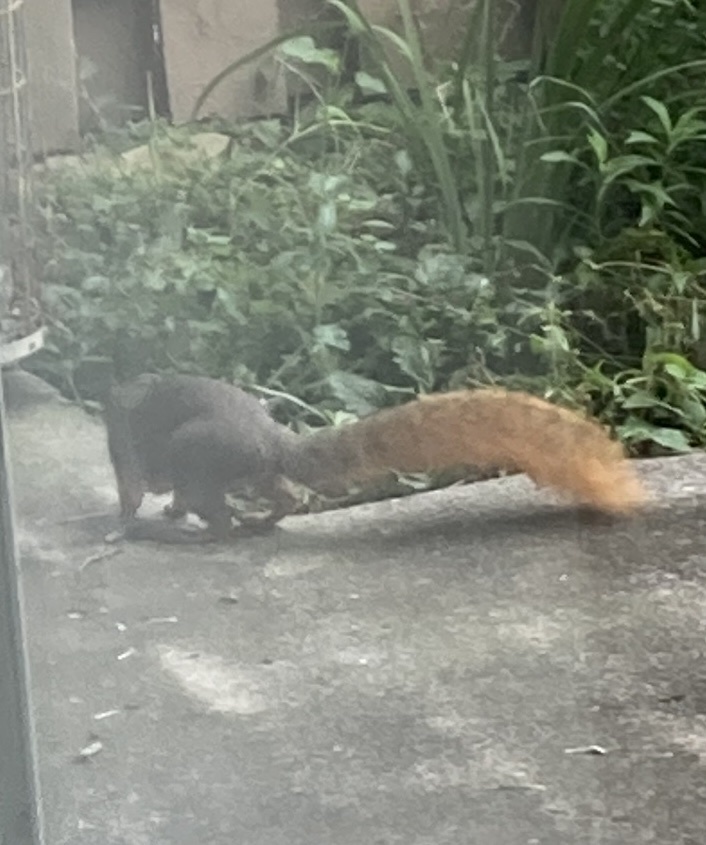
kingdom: Animalia
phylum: Chordata
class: Mammalia
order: Rodentia
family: Sciuridae
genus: Sciurus
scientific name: Sciurus niger
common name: Fox squirrel
